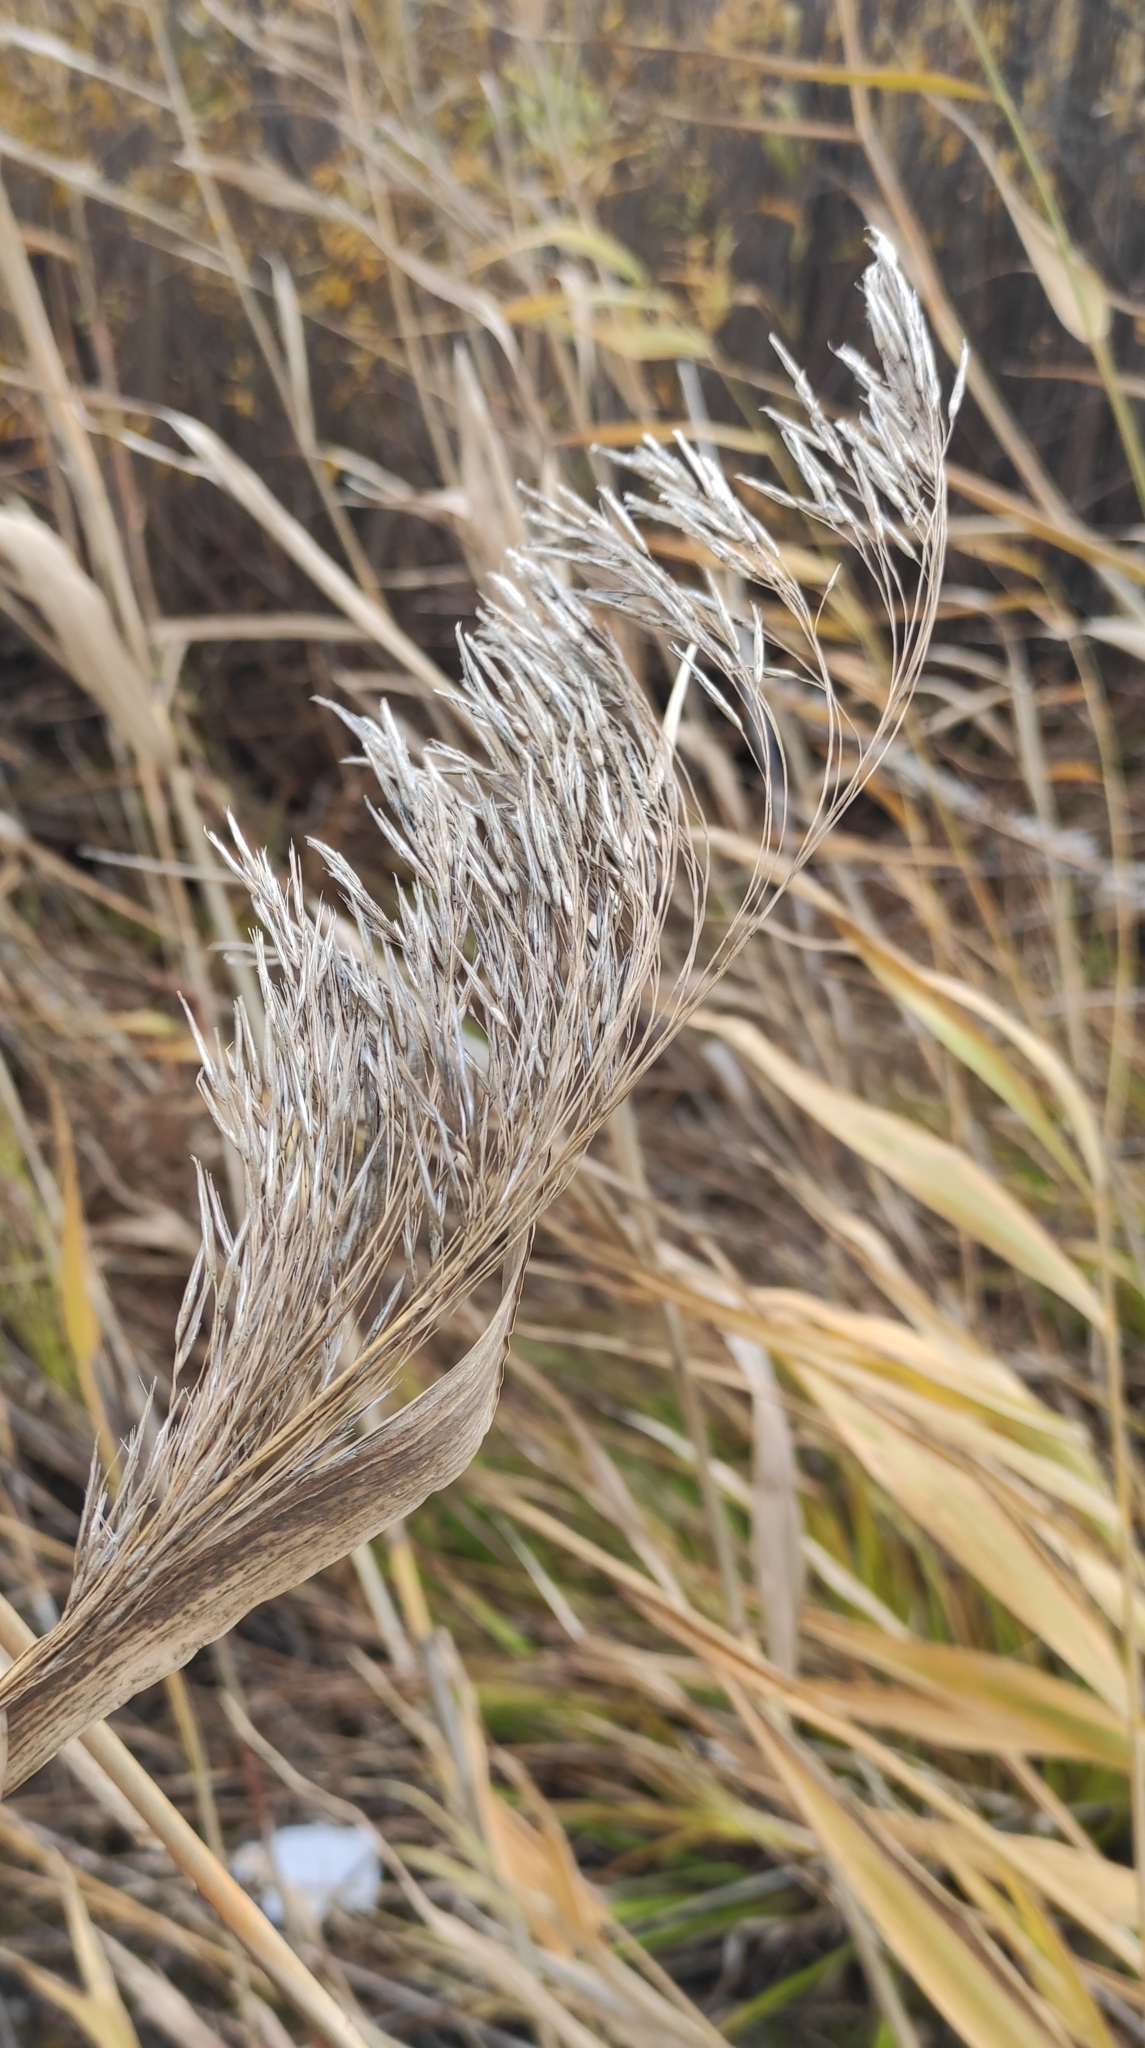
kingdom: Plantae
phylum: Tracheophyta
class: Liliopsida
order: Poales
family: Poaceae
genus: Phragmites
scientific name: Phragmites australis
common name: Common reed
